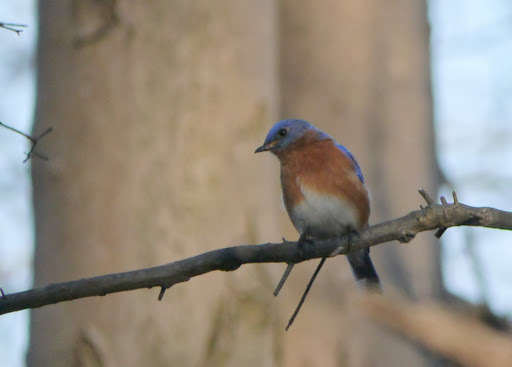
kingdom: Animalia
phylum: Chordata
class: Aves
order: Passeriformes
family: Turdidae
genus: Sialia
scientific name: Sialia sialis
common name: Eastern bluebird
